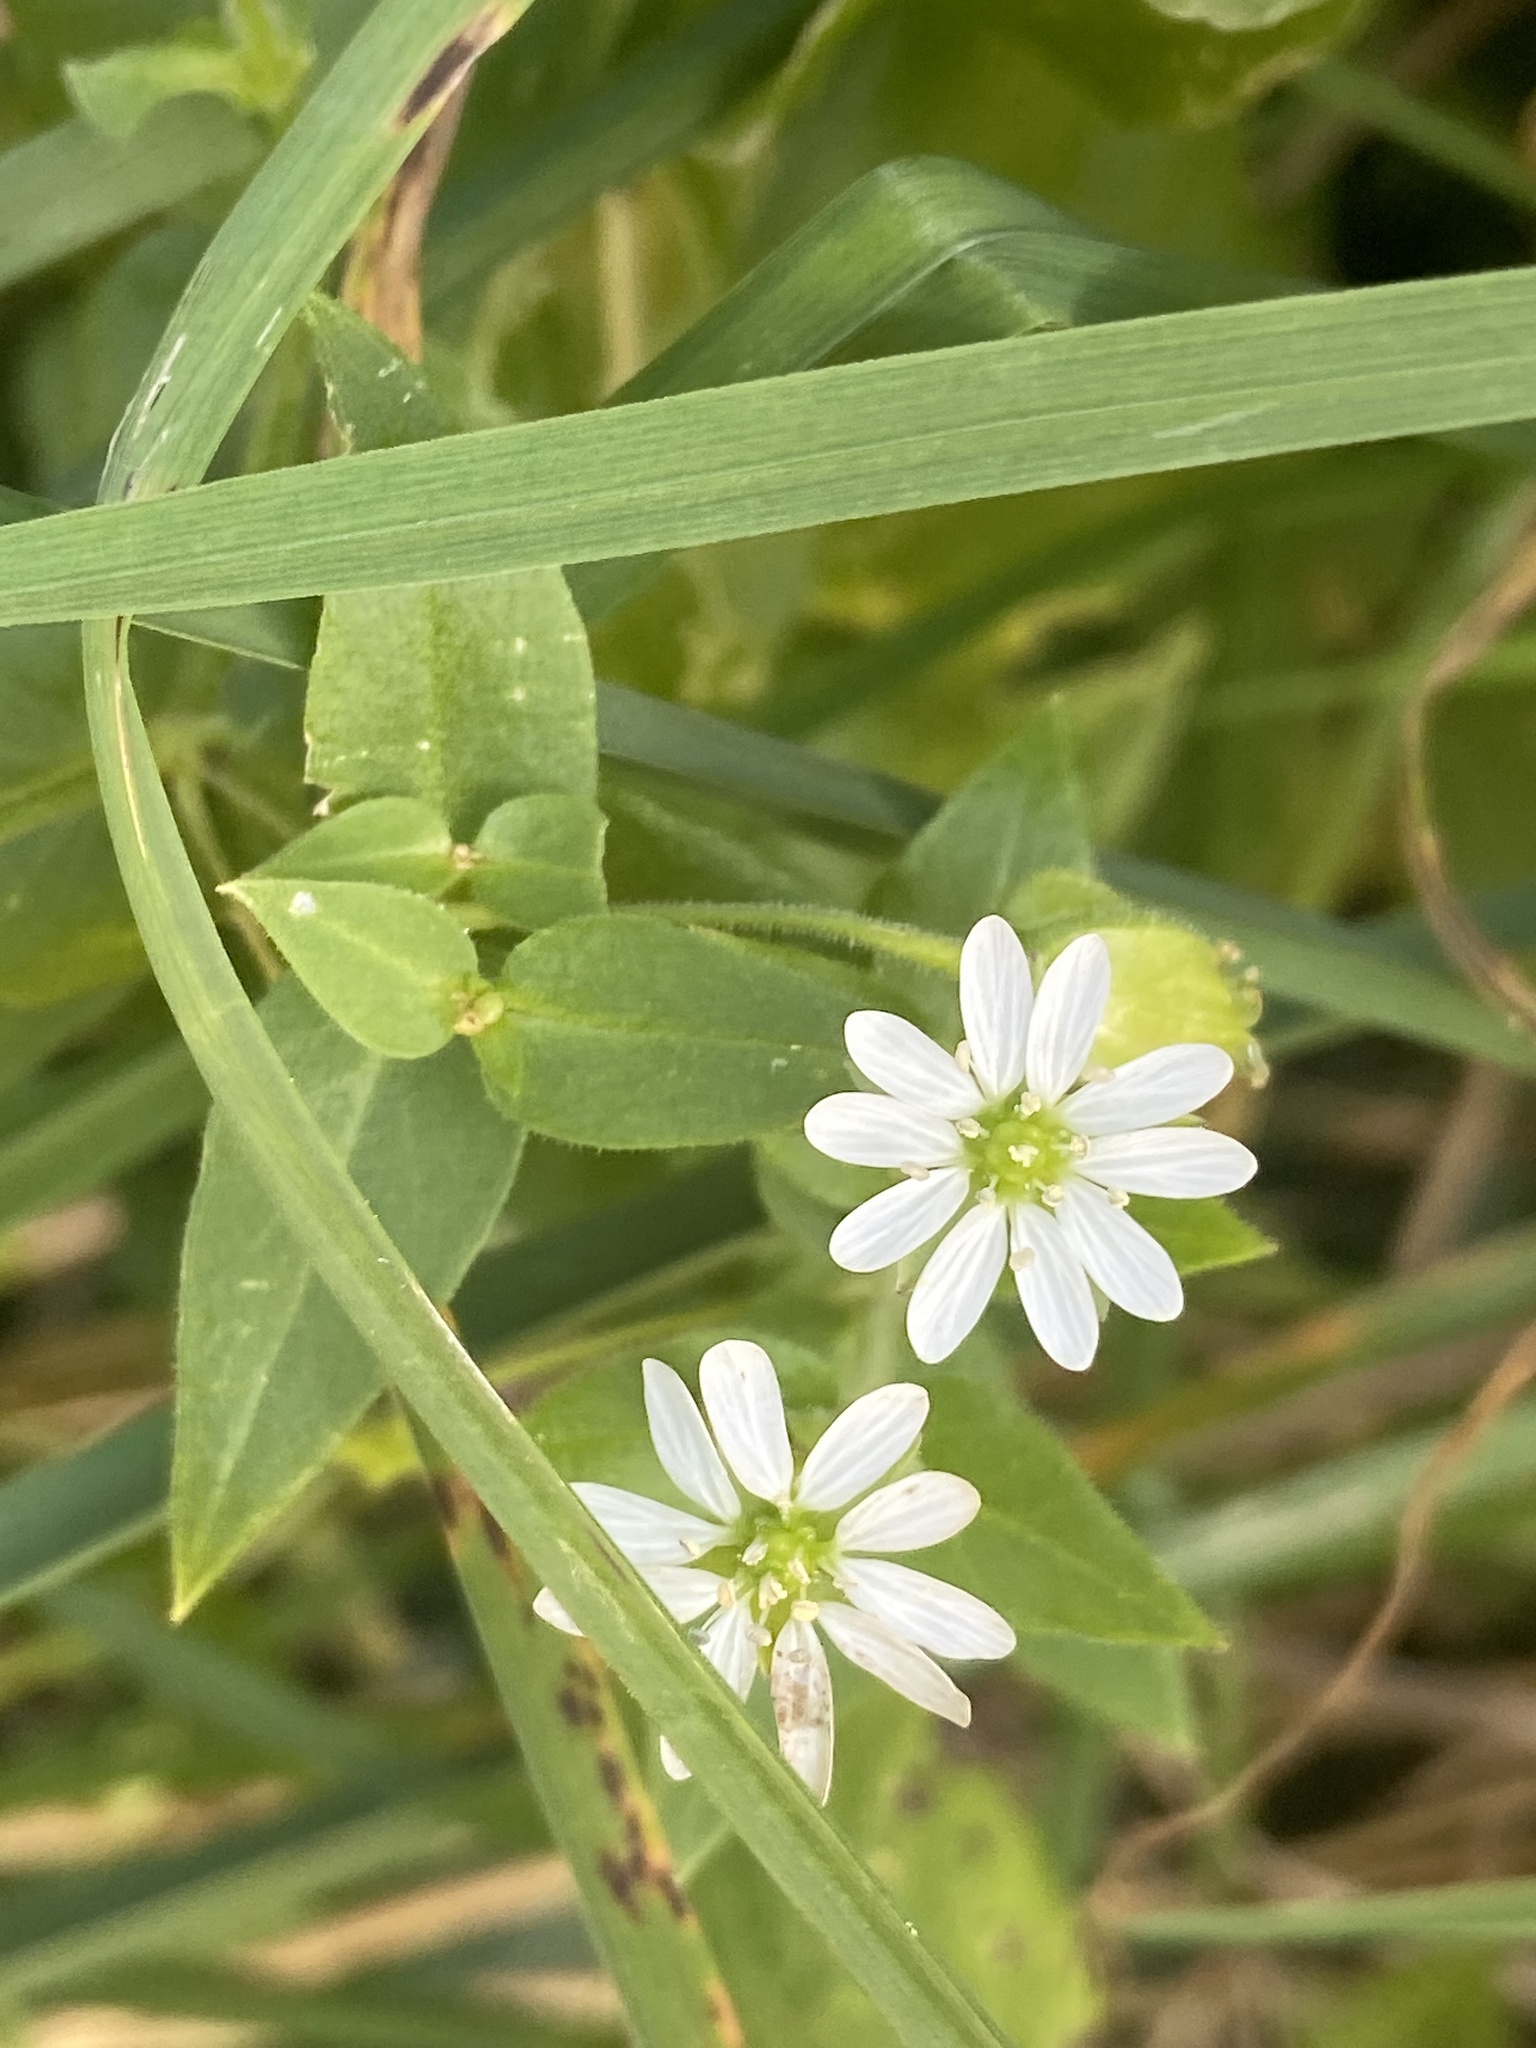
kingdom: Plantae
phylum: Tracheophyta
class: Magnoliopsida
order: Caryophyllales
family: Caryophyllaceae
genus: Stellaria
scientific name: Stellaria aquatica
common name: Water chickweed
